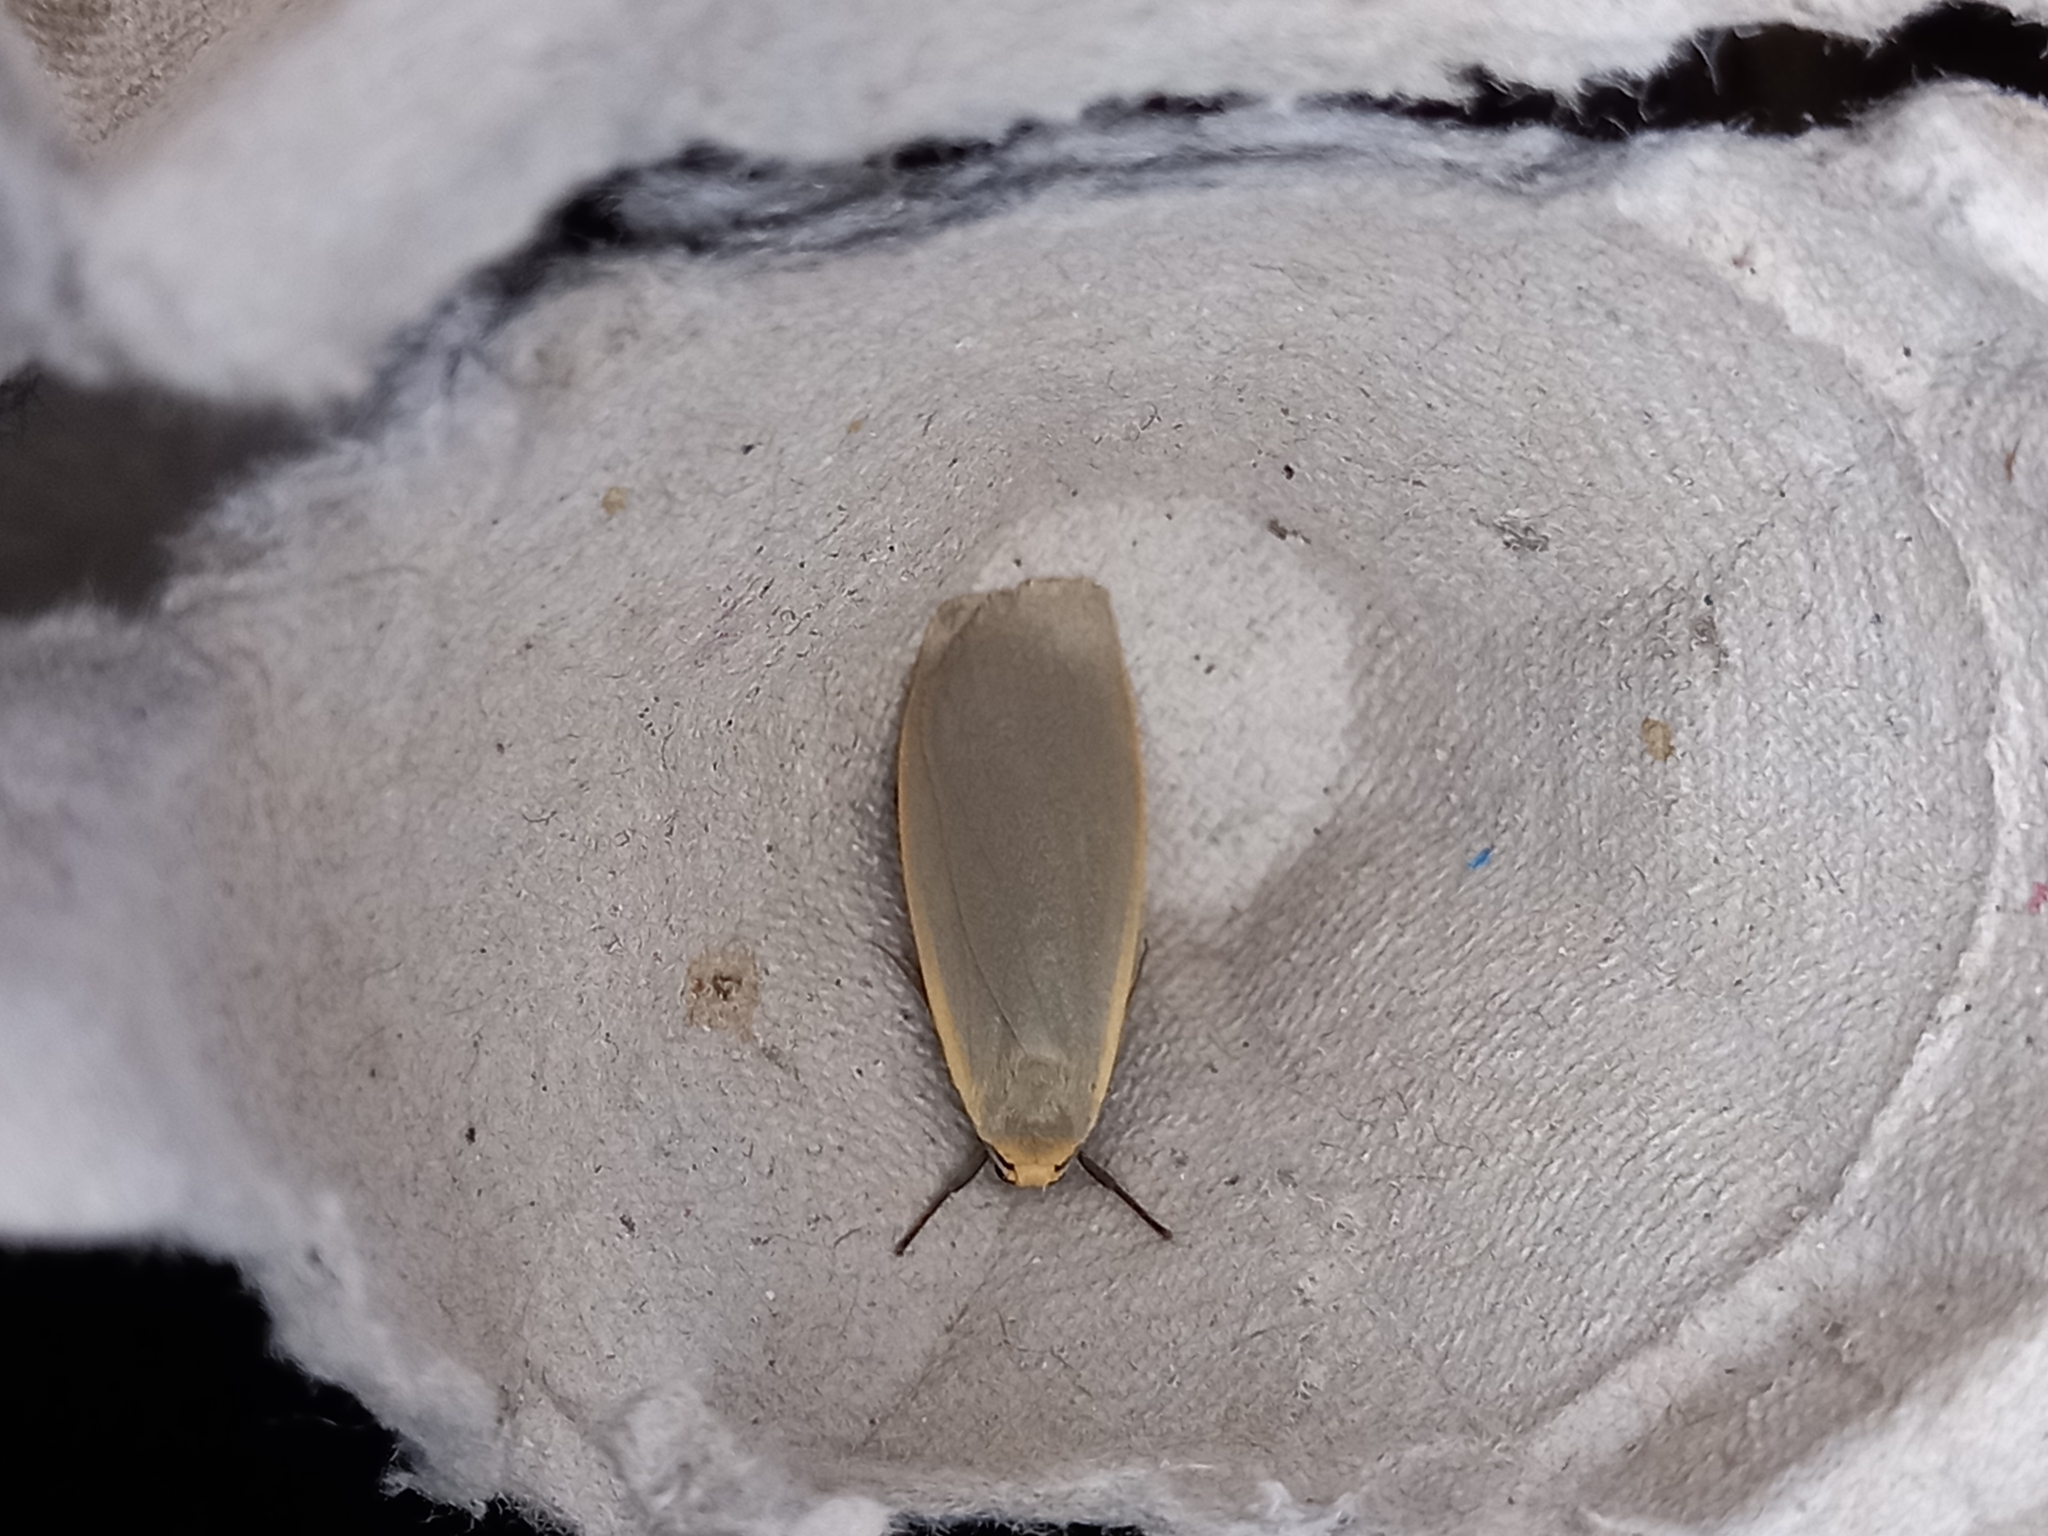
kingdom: Animalia
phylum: Arthropoda
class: Insecta
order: Lepidoptera
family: Erebidae
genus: Collita
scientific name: Collita griseola
